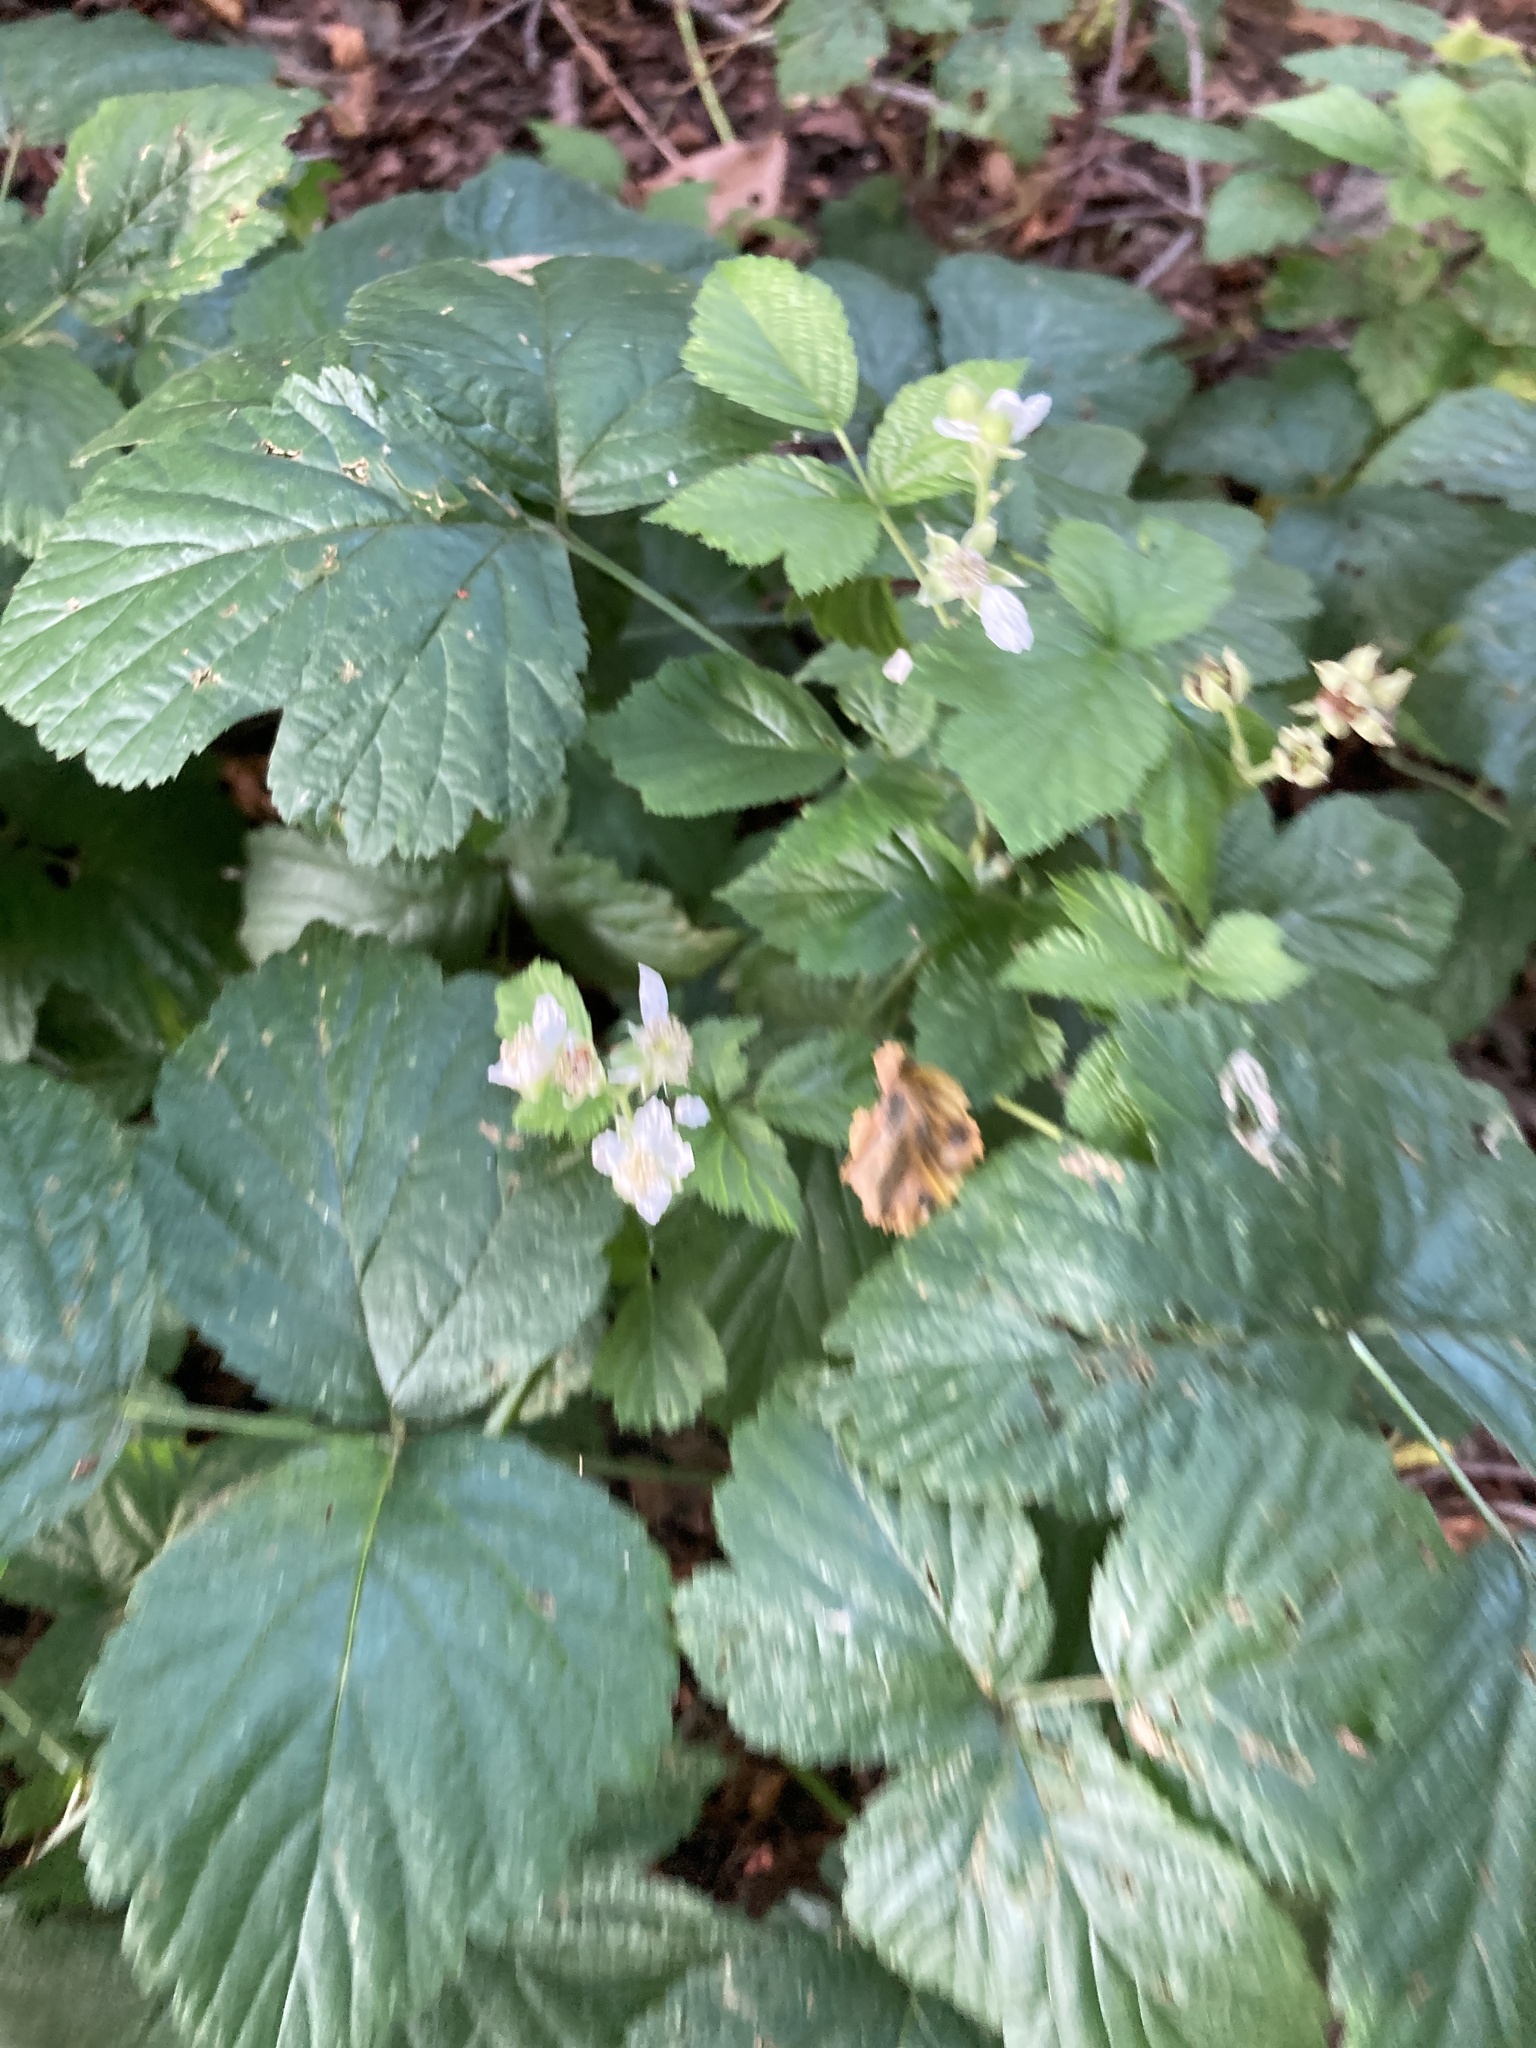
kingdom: Plantae
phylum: Tracheophyta
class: Magnoliopsida
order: Rosales
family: Rosaceae
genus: Rubus
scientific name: Rubus caesius
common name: Dewberry
